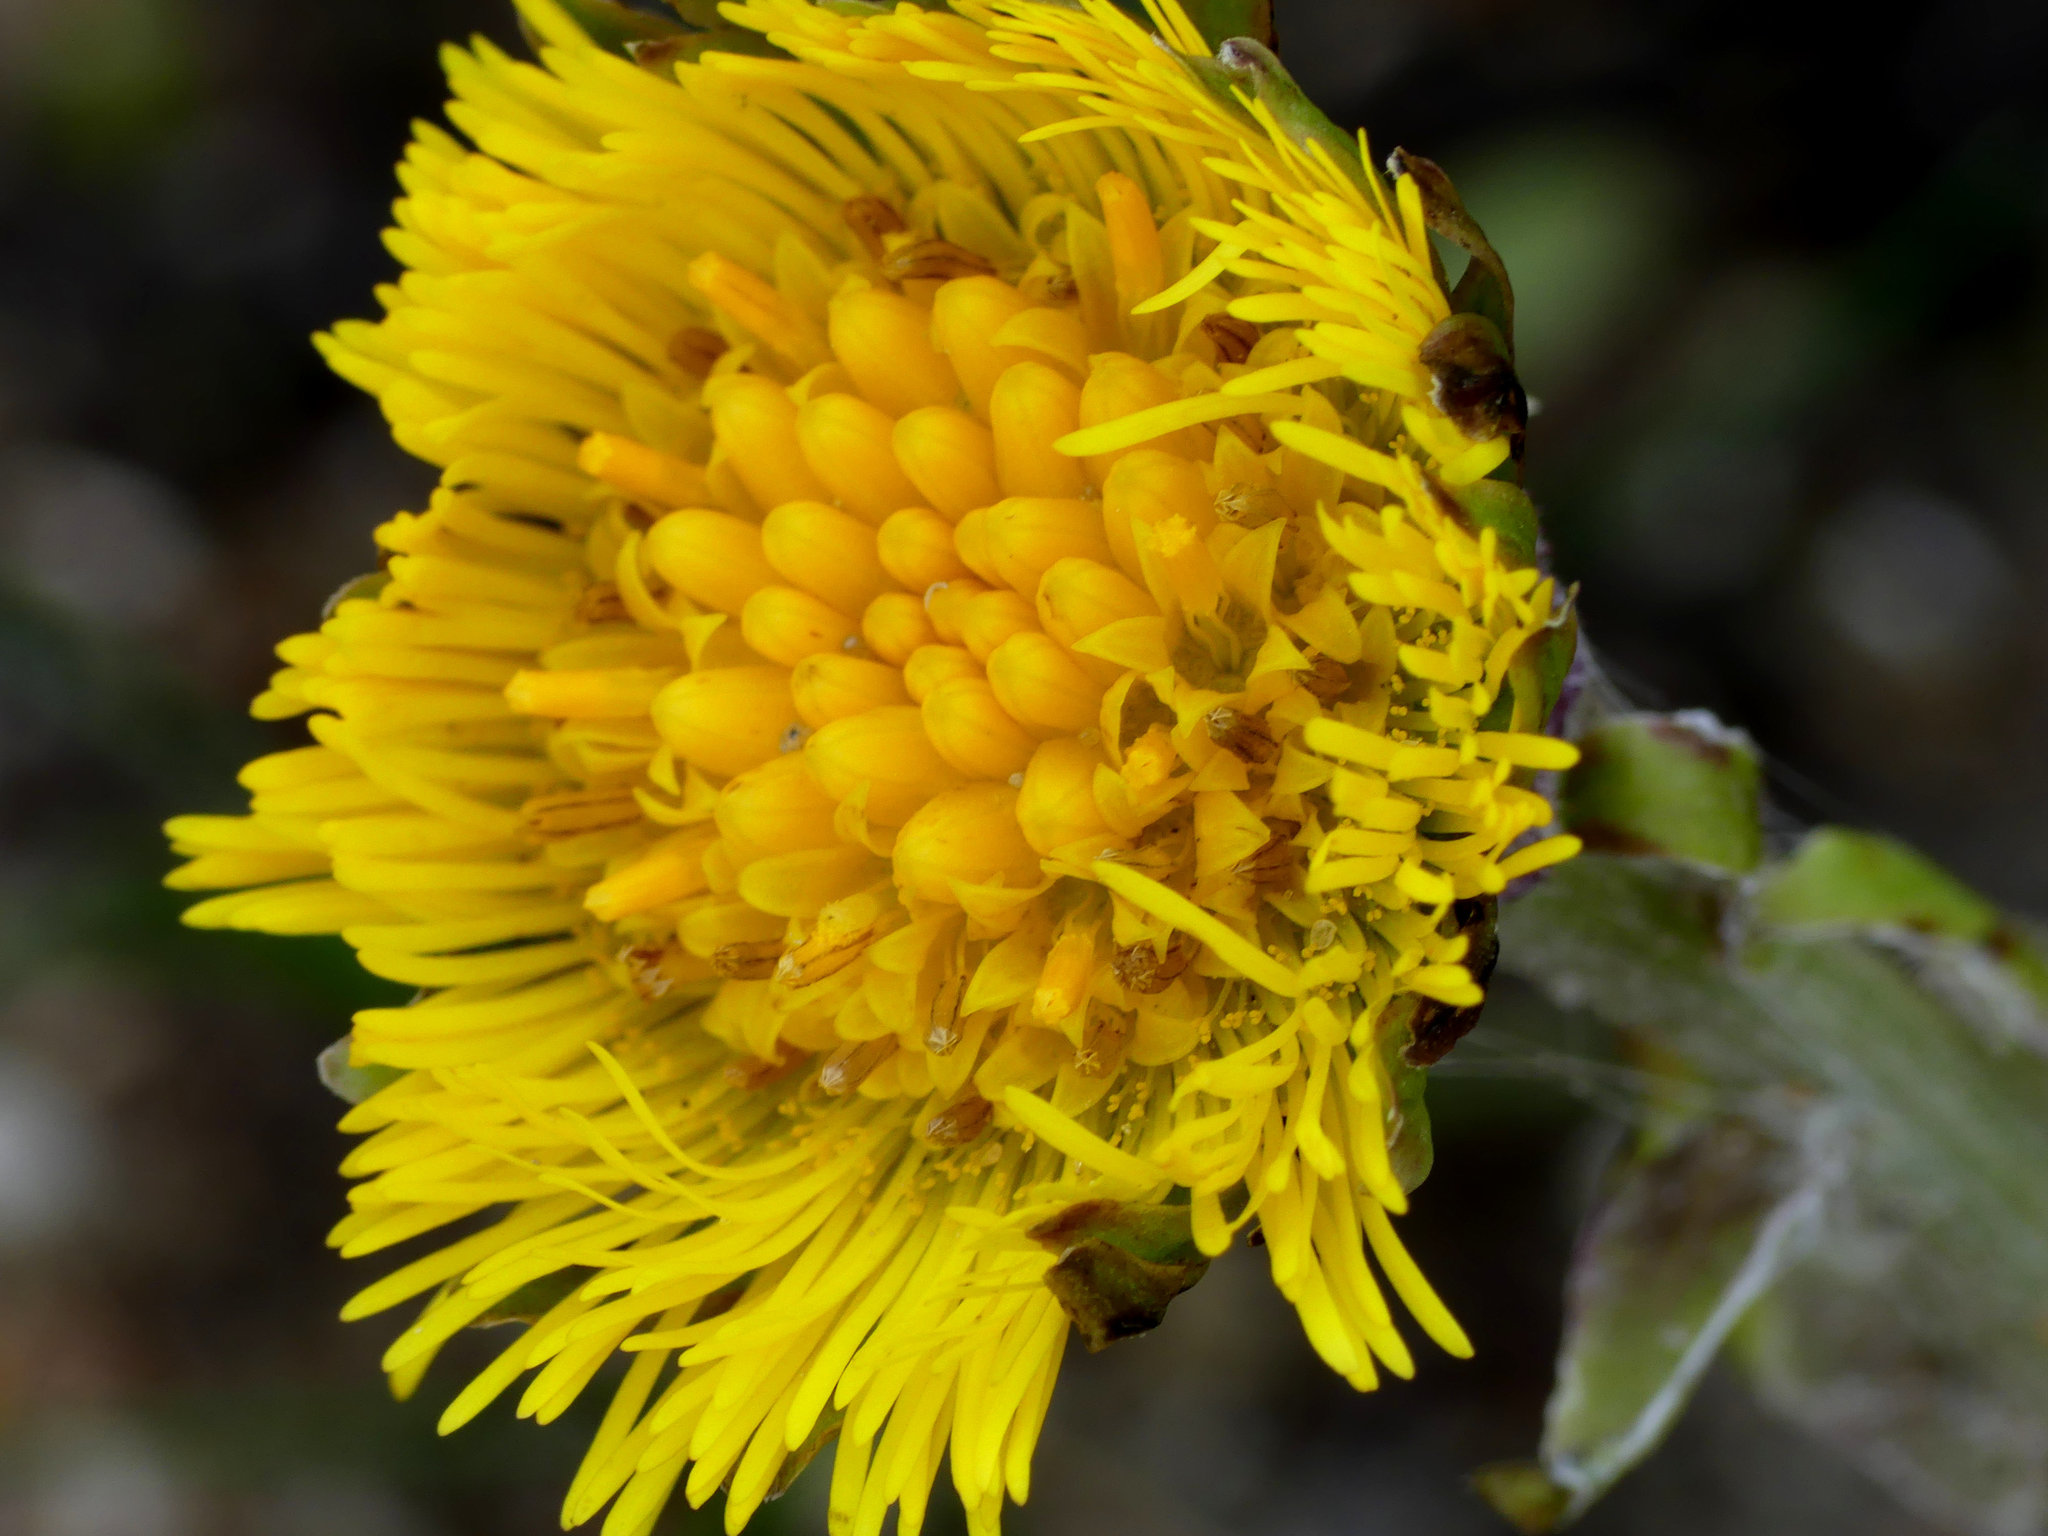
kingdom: Plantae
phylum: Tracheophyta
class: Magnoliopsida
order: Asterales
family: Asteraceae
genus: Tussilago
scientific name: Tussilago farfara
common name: Coltsfoot
